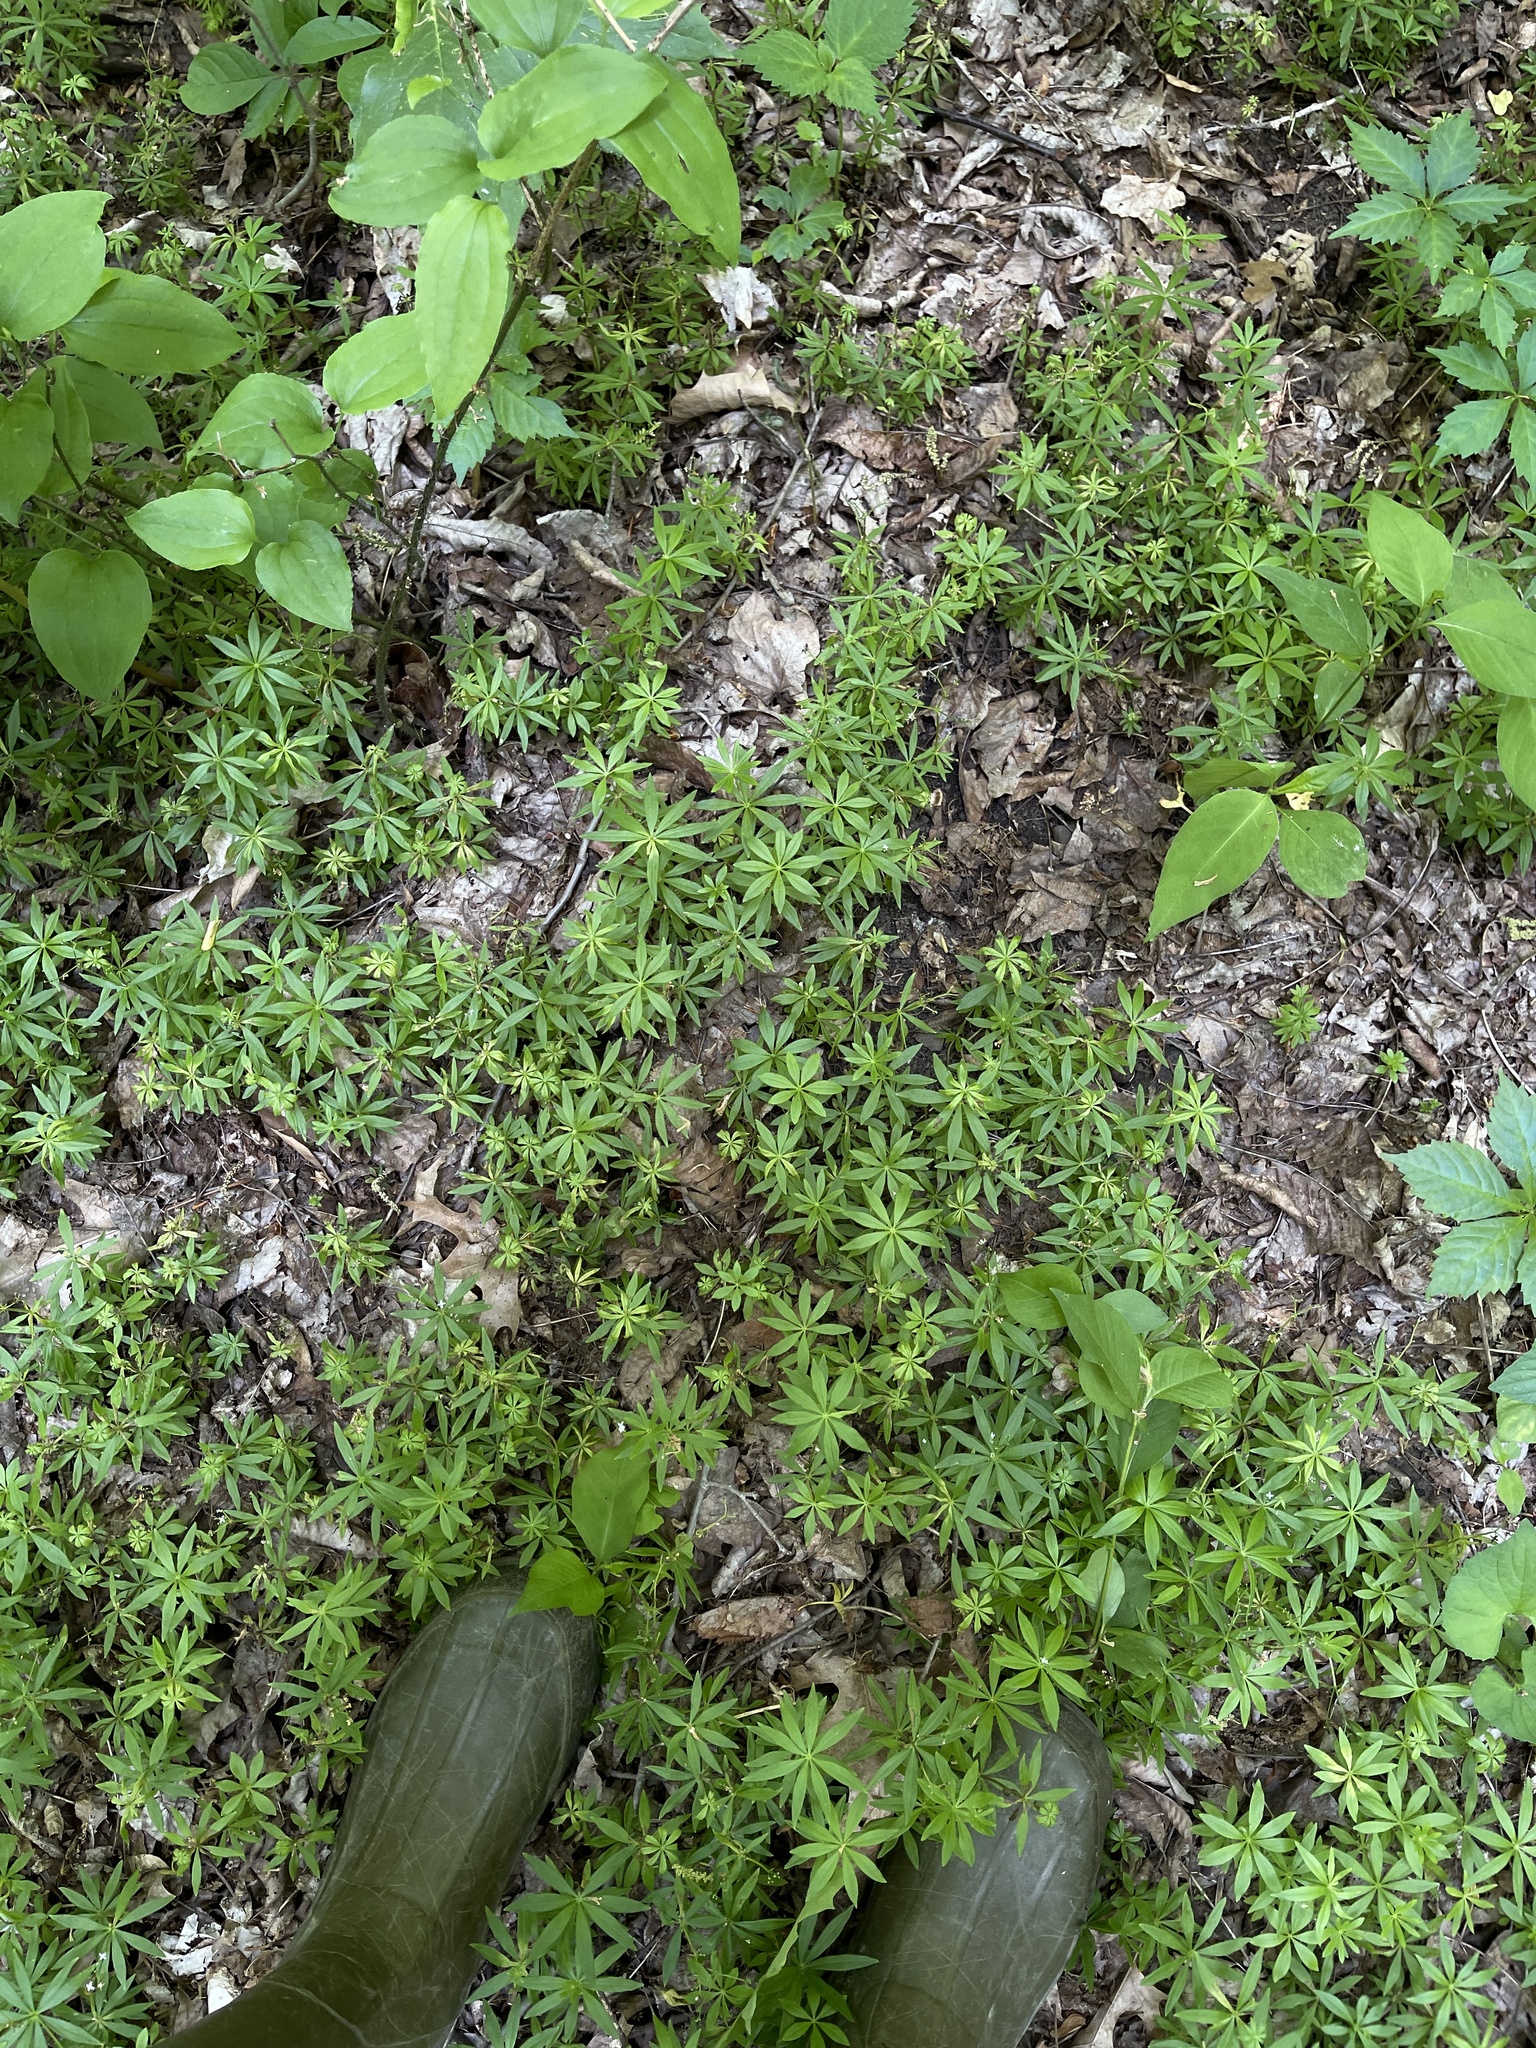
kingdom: Plantae
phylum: Tracheophyta
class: Magnoliopsida
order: Gentianales
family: Rubiaceae
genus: Galium
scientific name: Galium odoratum
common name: Sweet woodruff
